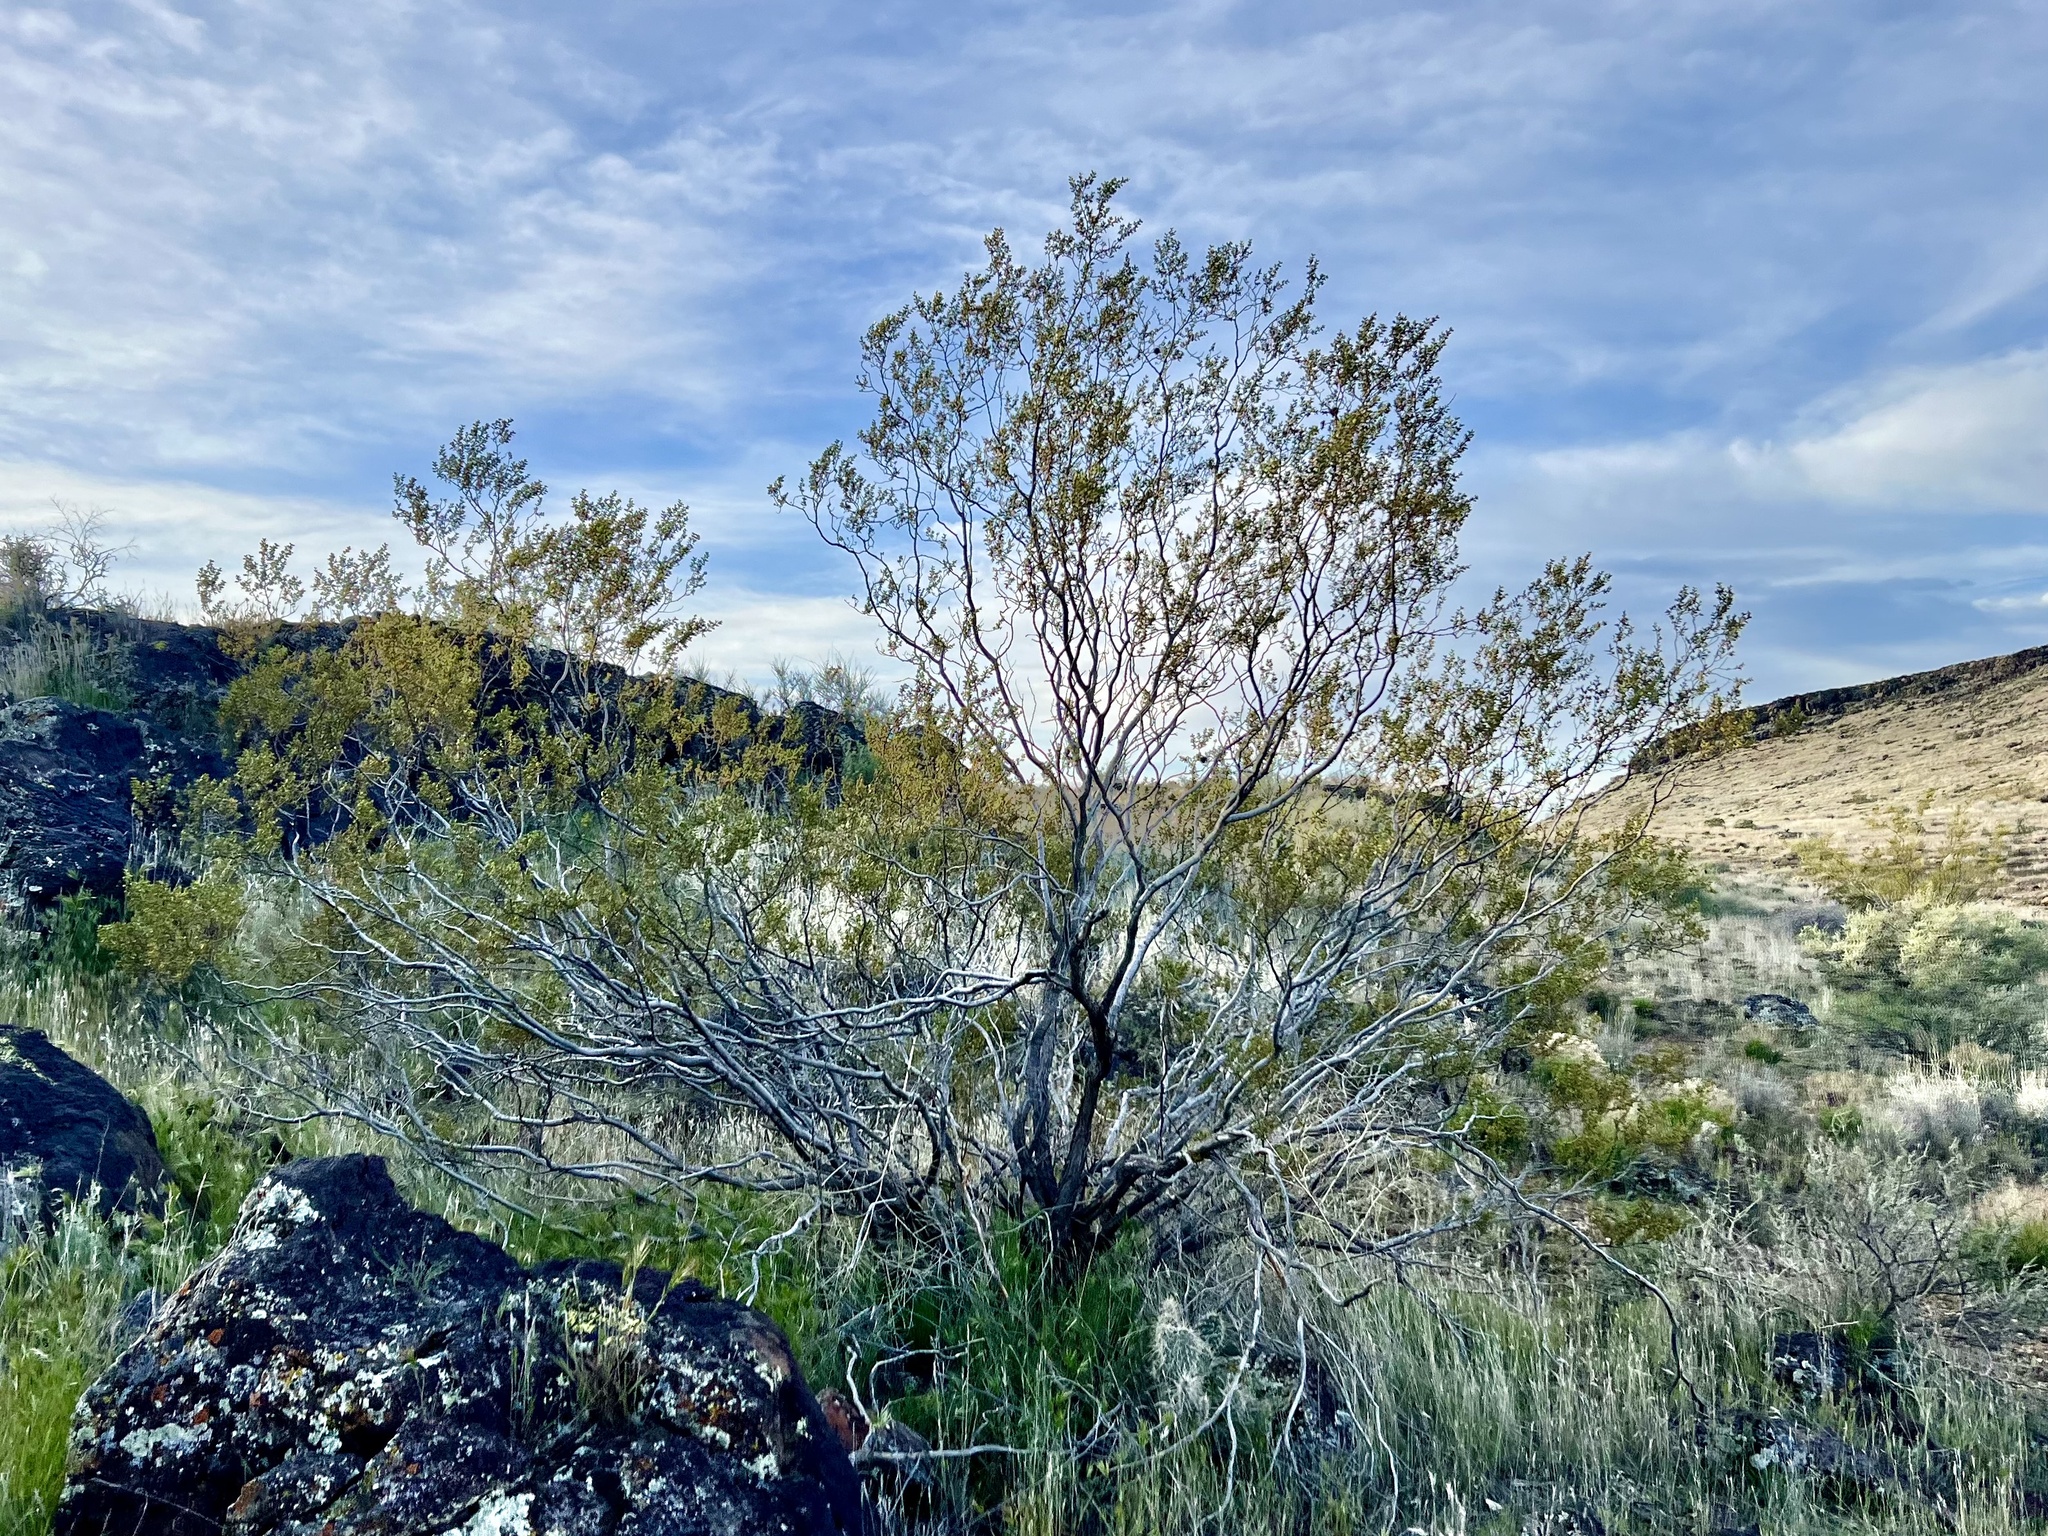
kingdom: Plantae
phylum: Tracheophyta
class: Magnoliopsida
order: Zygophyllales
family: Zygophyllaceae
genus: Larrea
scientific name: Larrea tridentata
